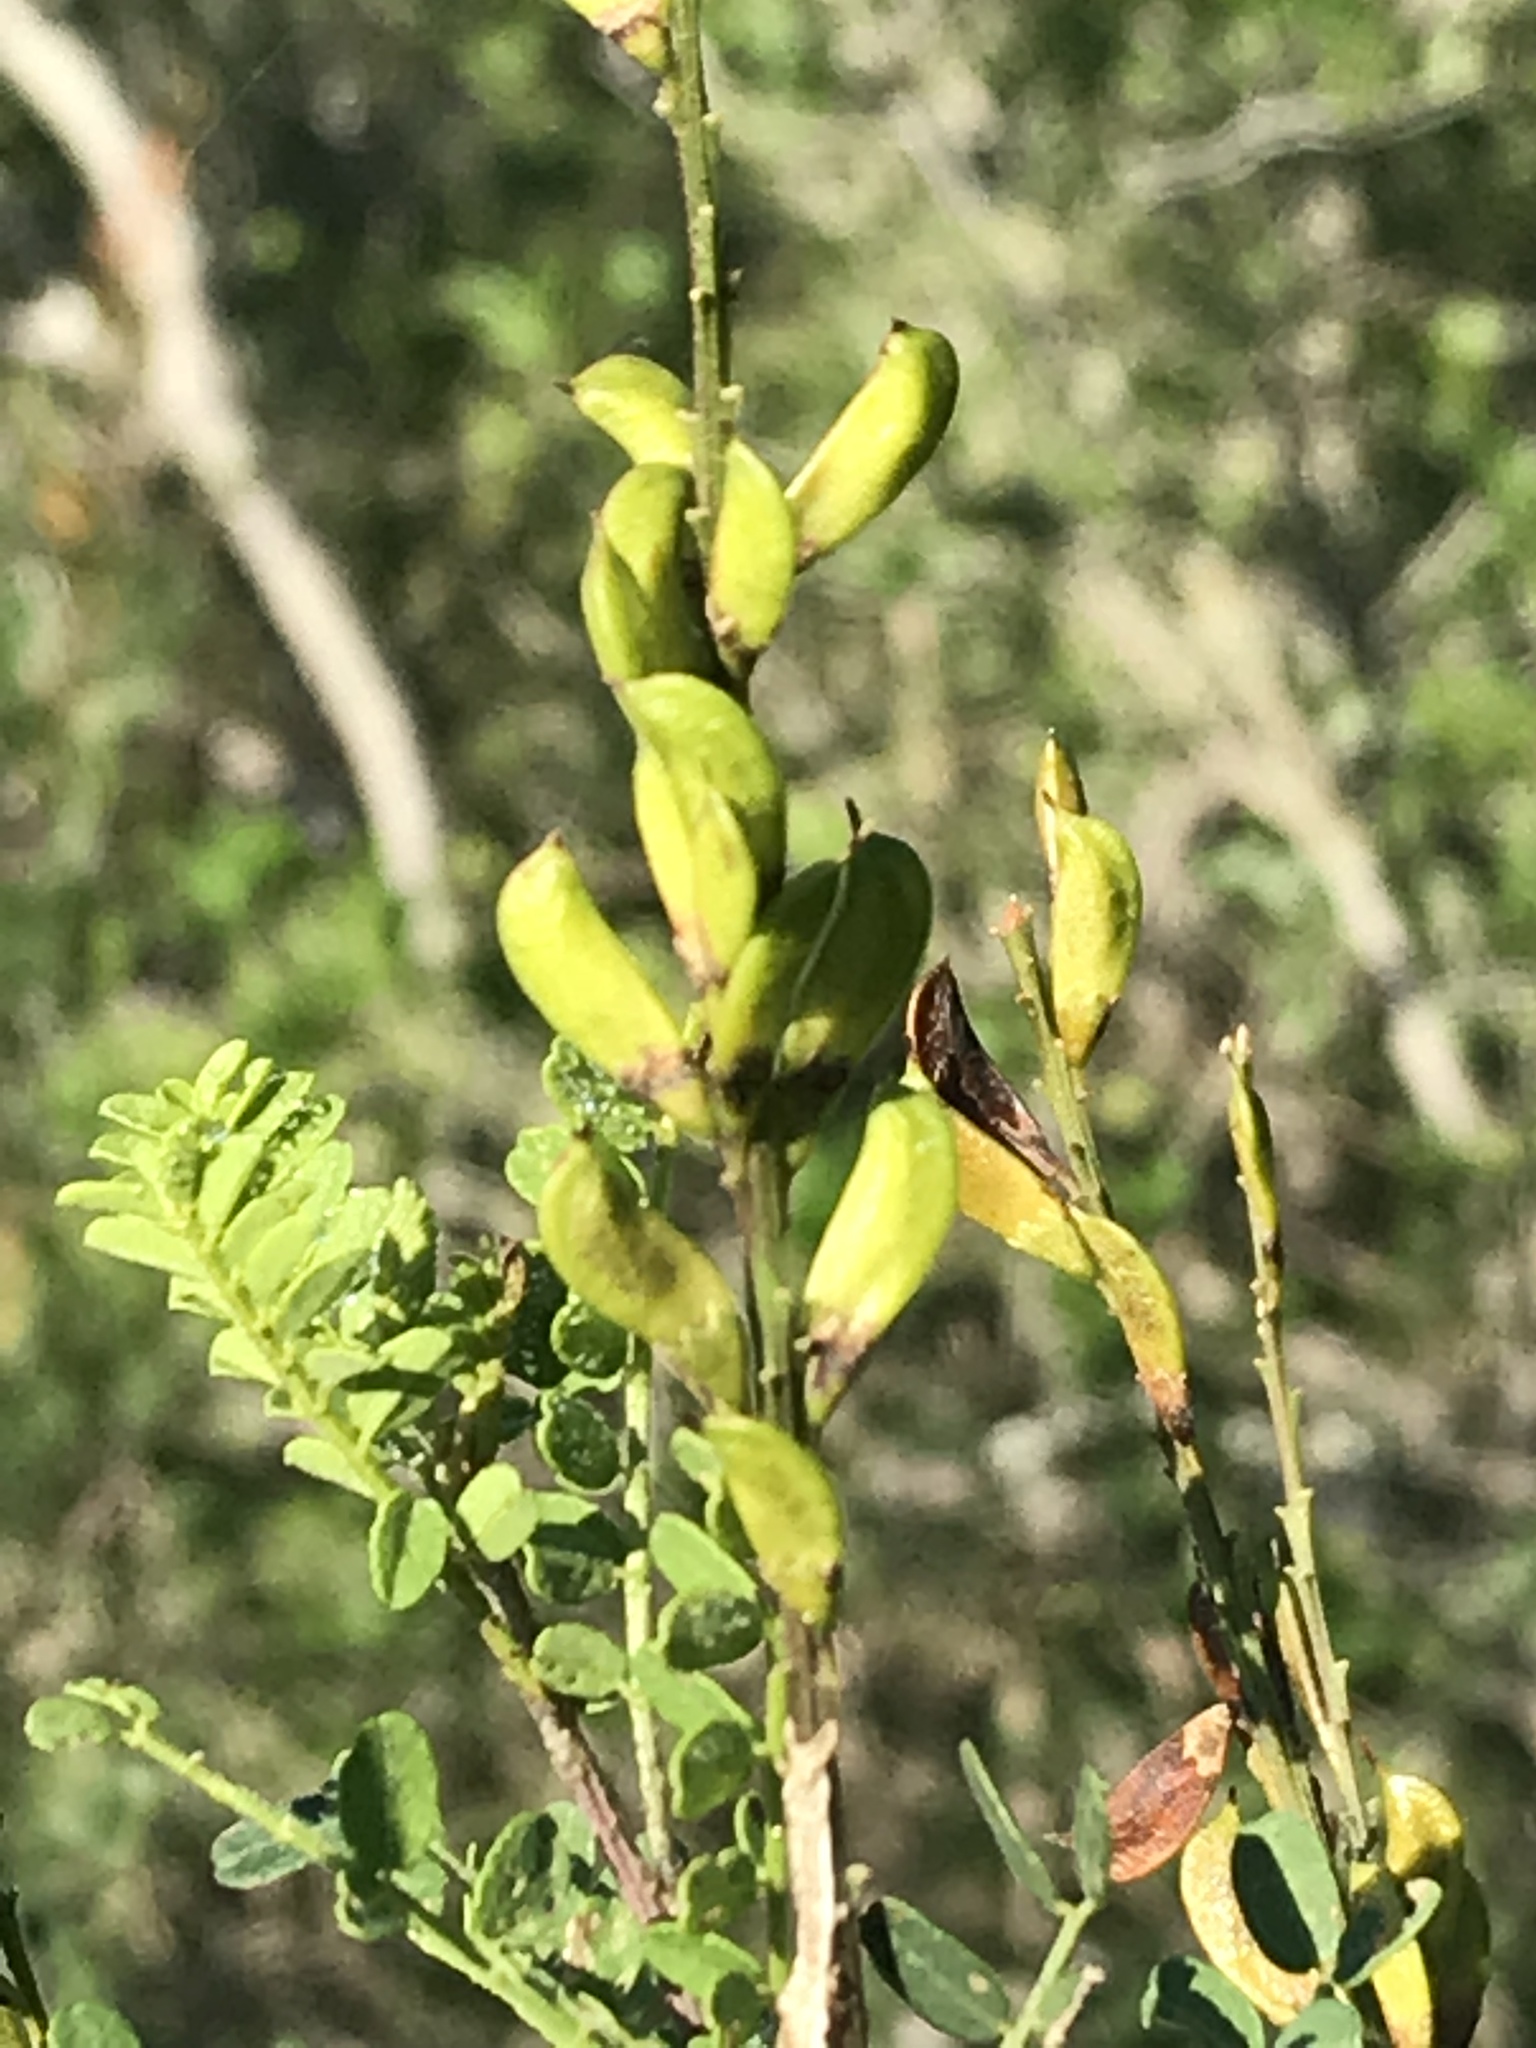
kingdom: Plantae
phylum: Tracheophyta
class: Magnoliopsida
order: Fabales
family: Fabaceae
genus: Eysenhardtia
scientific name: Eysenhardtia texana
